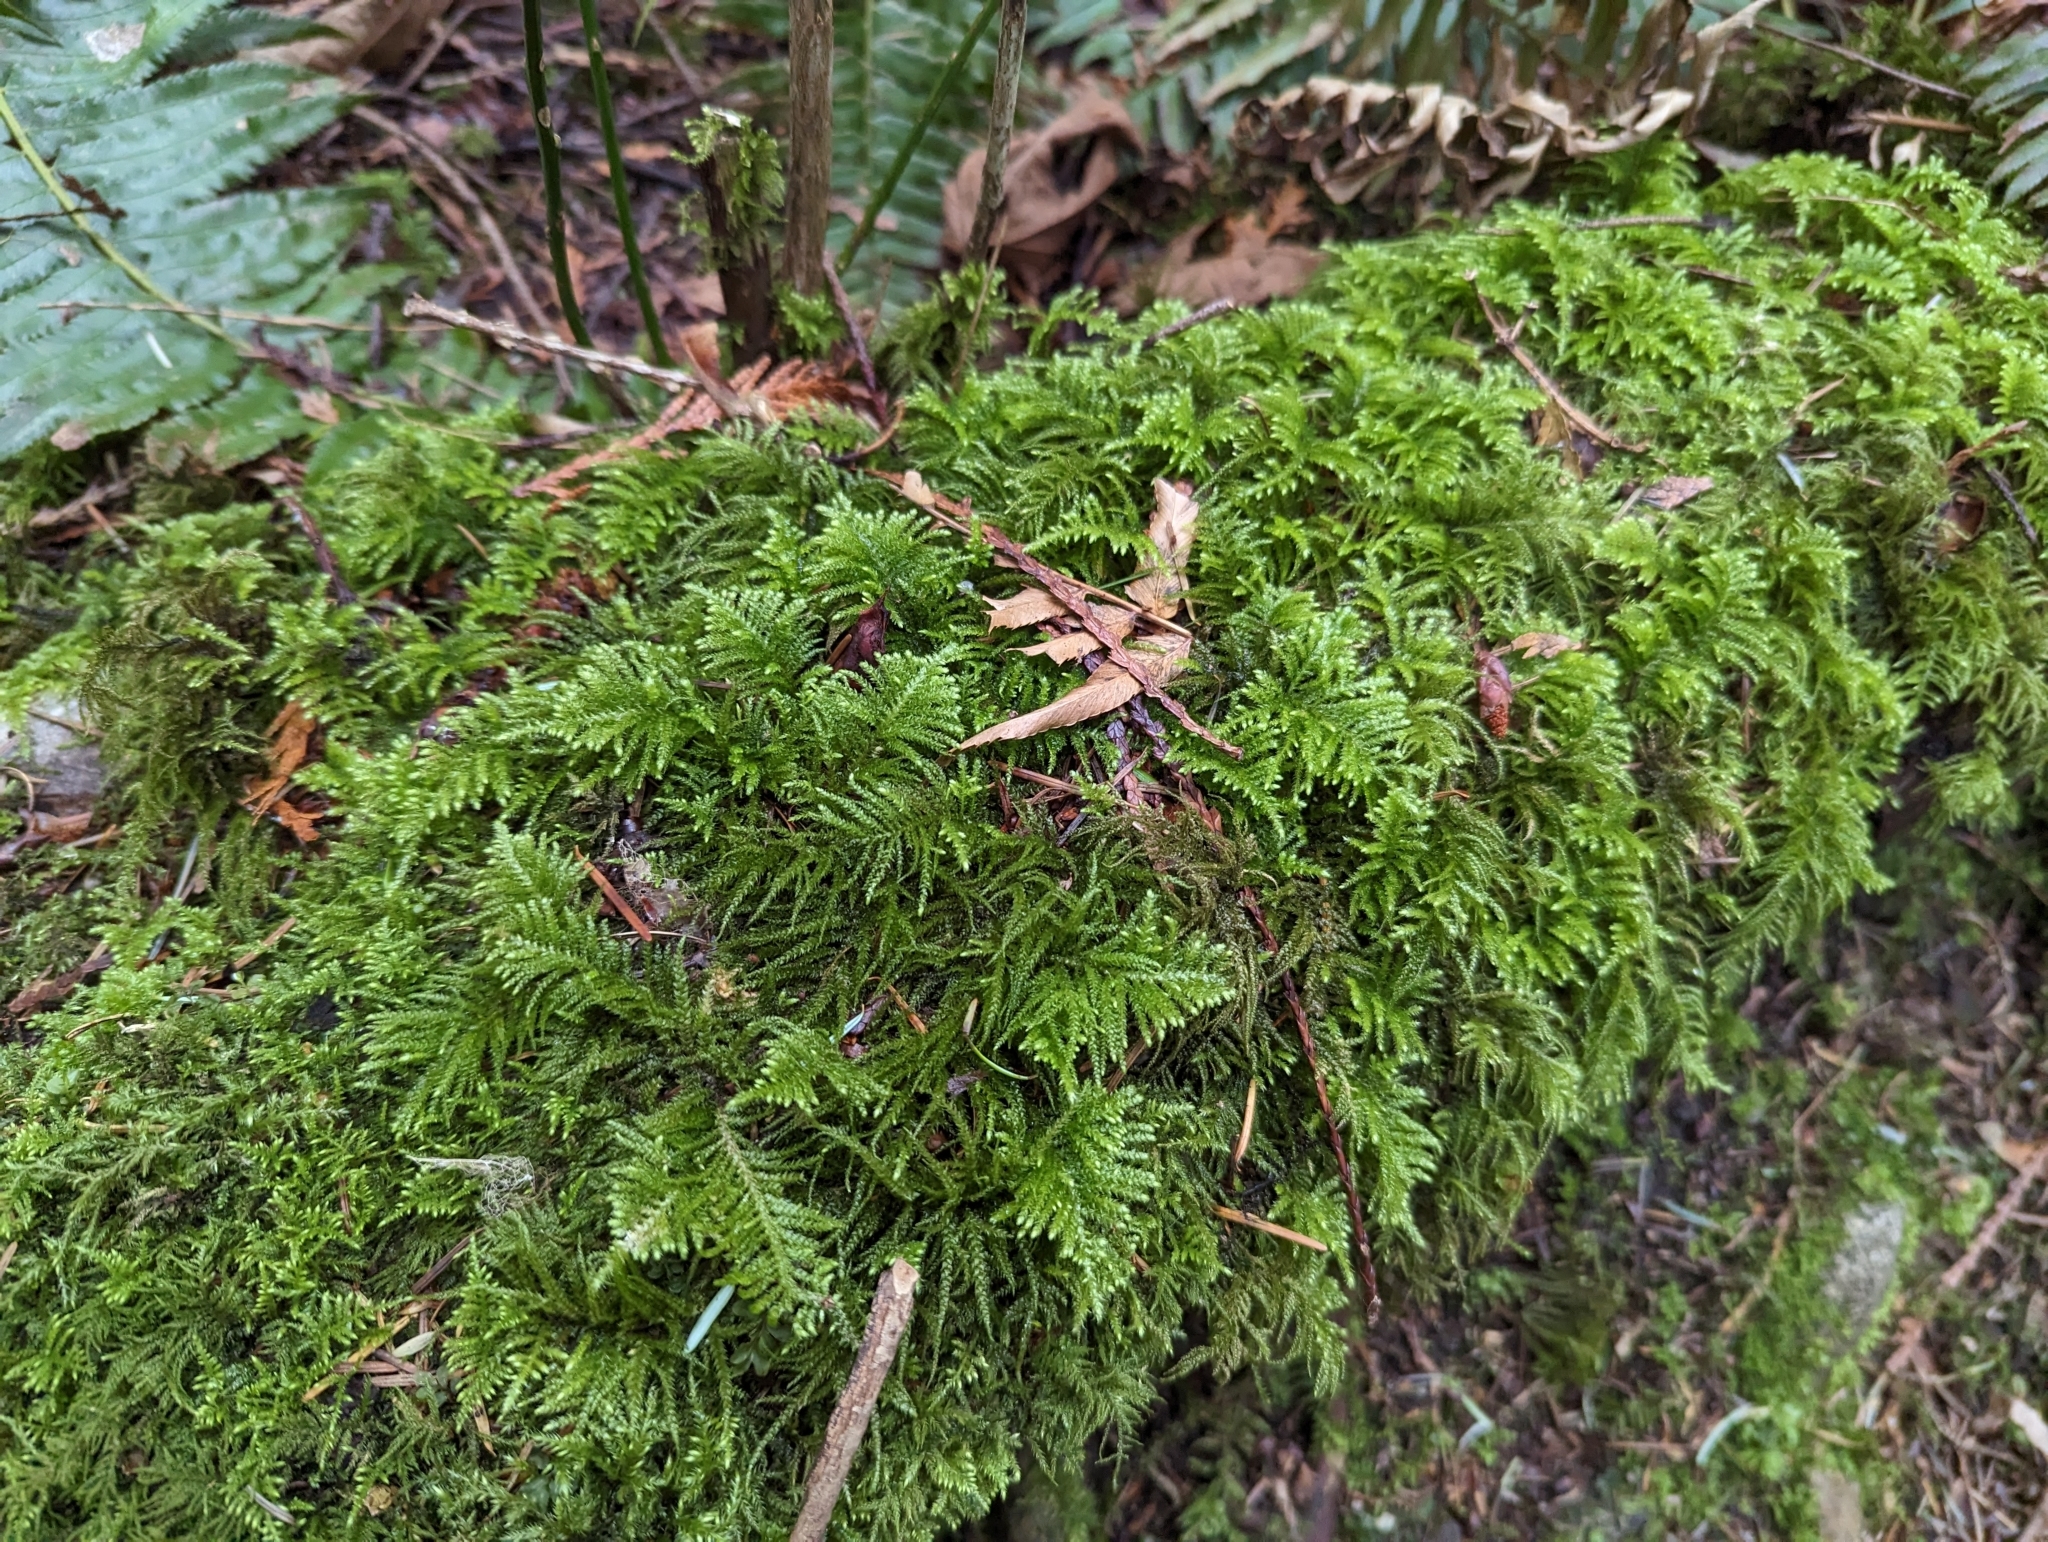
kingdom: Plantae
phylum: Bryophyta
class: Bryopsida
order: Hypnales
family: Brachytheciaceae
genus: Kindbergia
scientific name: Kindbergia oregana
